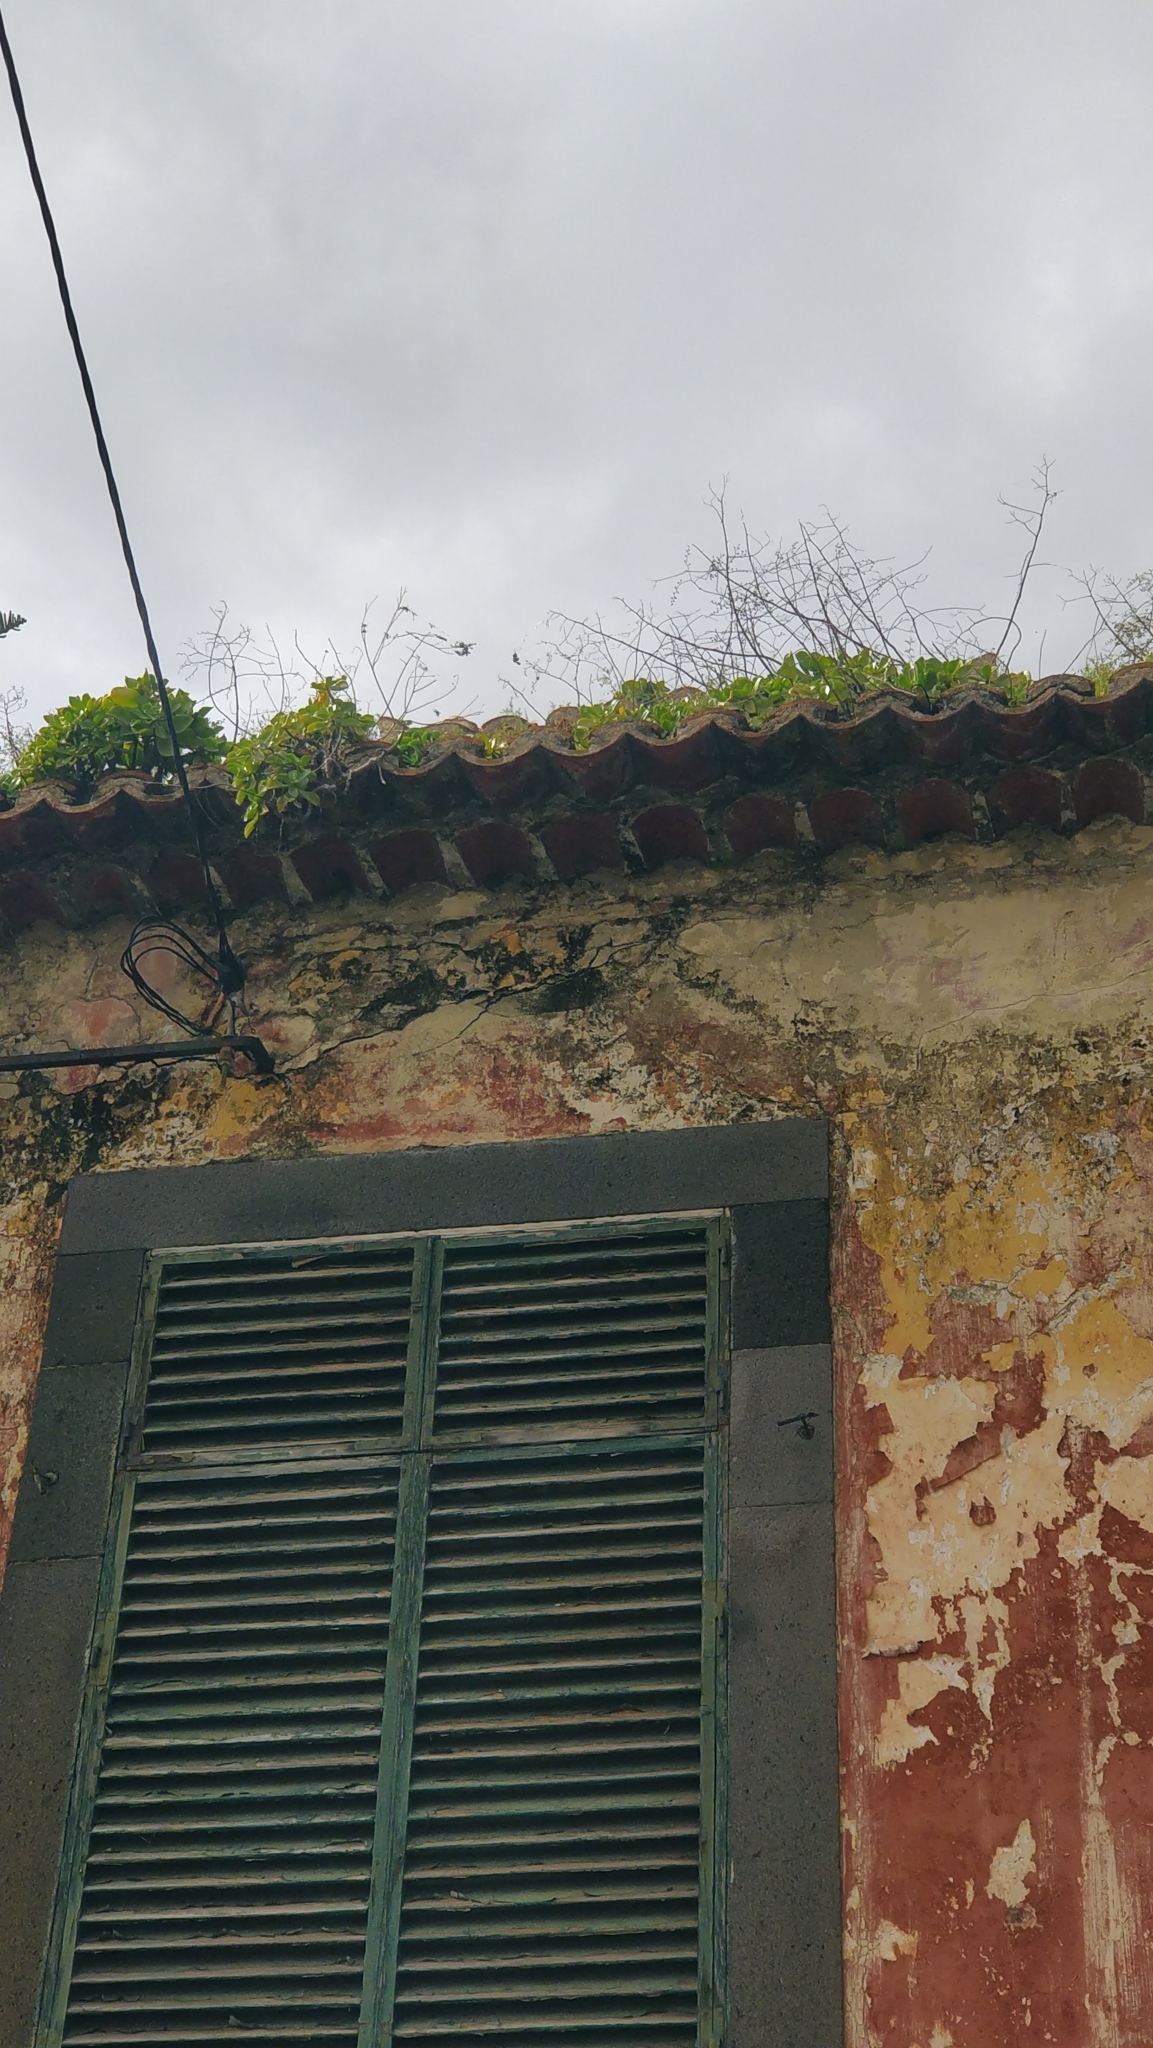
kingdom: Plantae
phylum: Tracheophyta
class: Magnoliopsida
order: Saxifragales
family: Crassulaceae
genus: Aeonium
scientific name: Aeonium glutinosum
